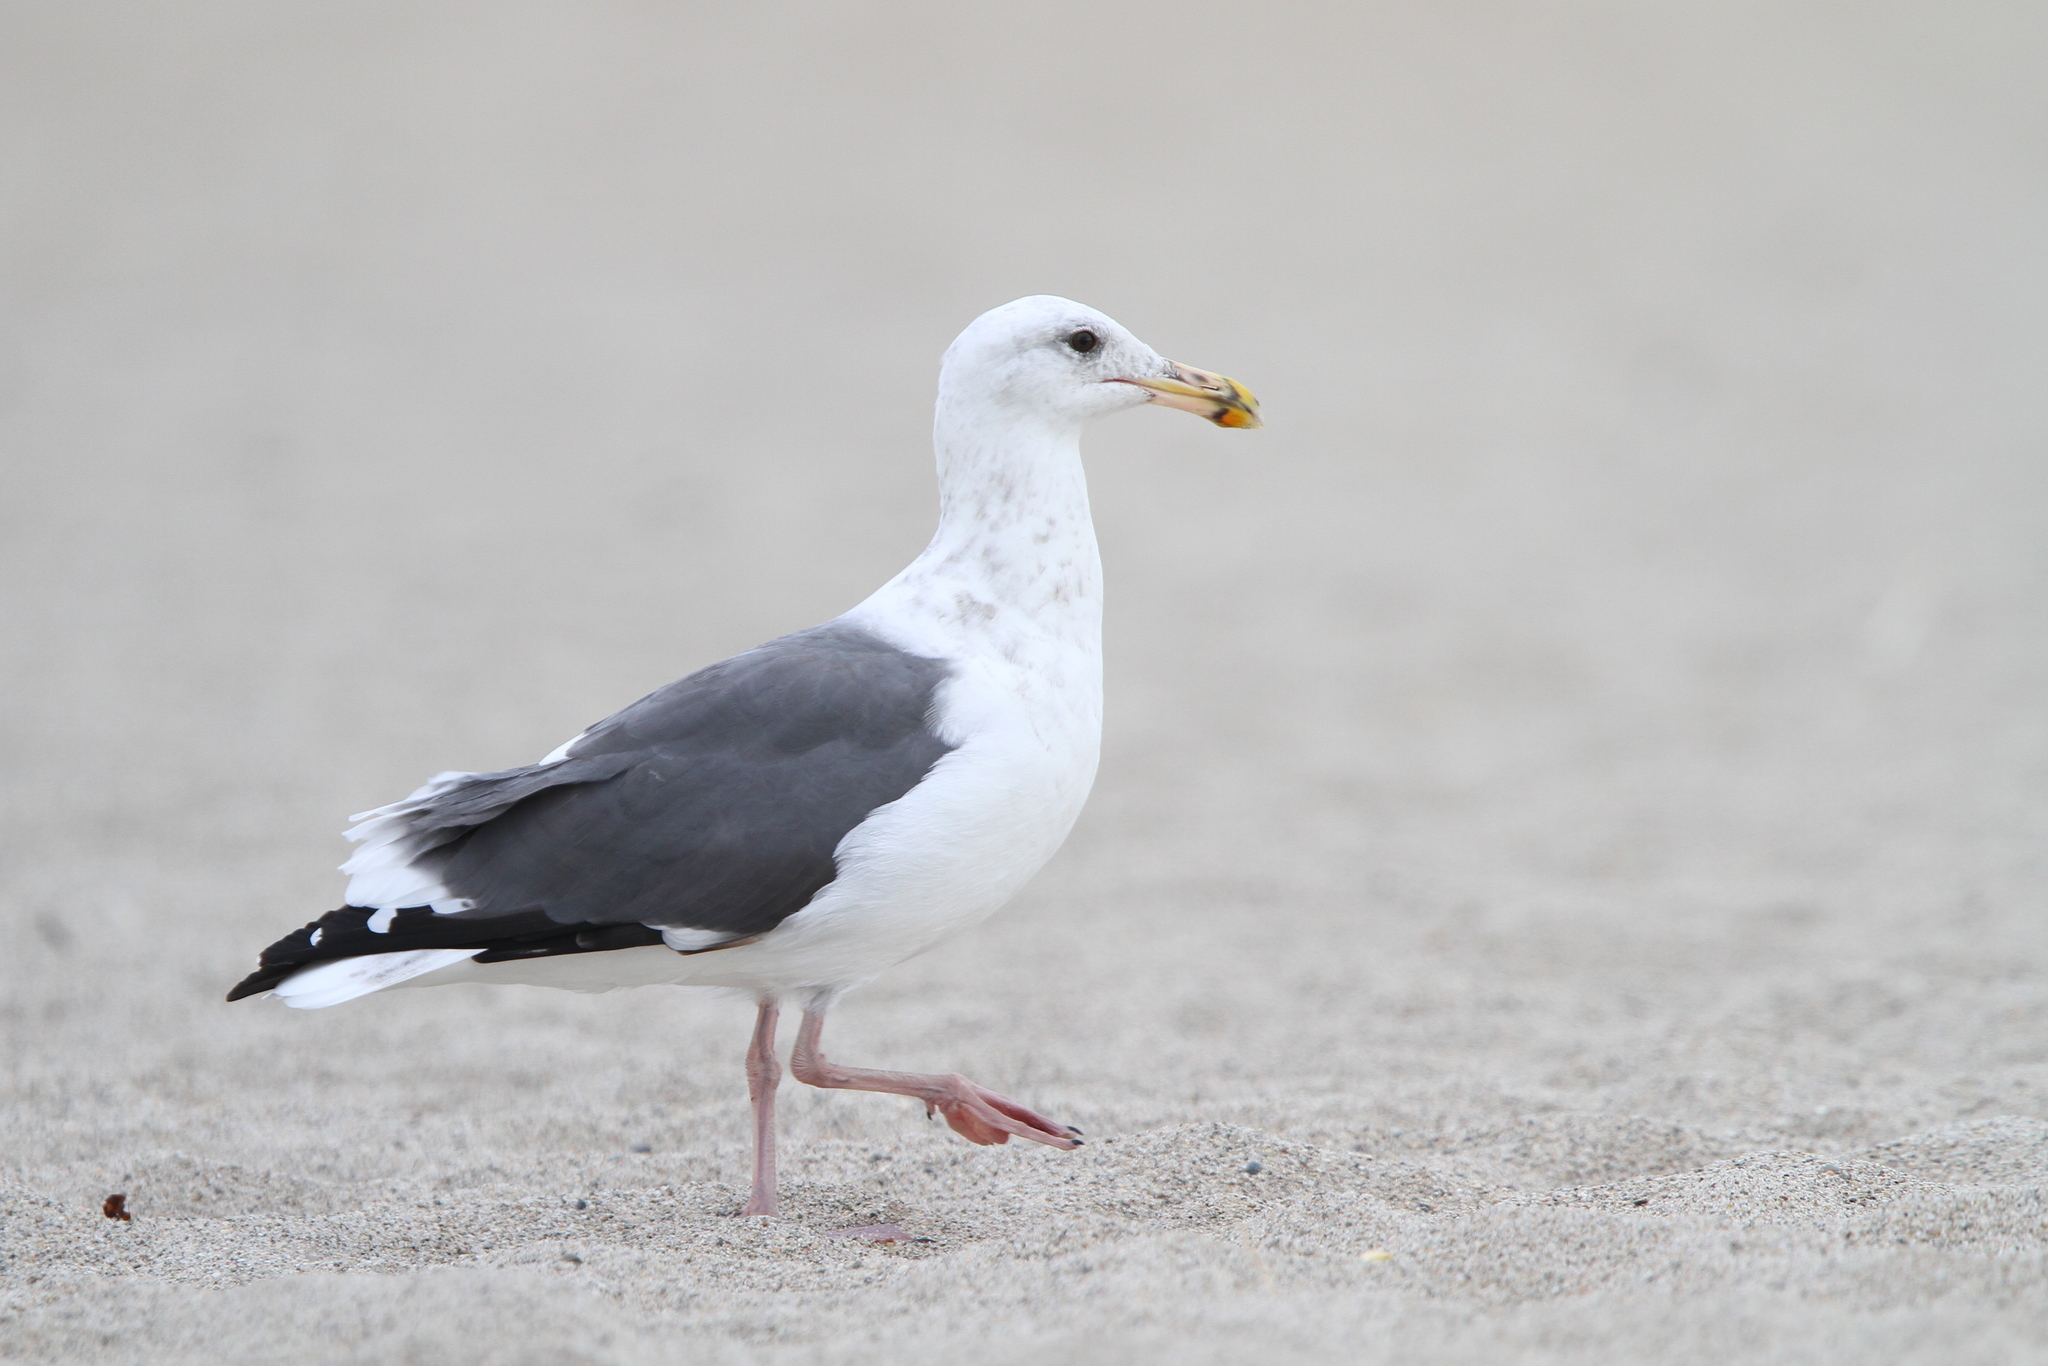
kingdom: Animalia
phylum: Chordata
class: Aves
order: Charadriiformes
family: Laridae
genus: Larus
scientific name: Larus occidentalis
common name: Western gull
